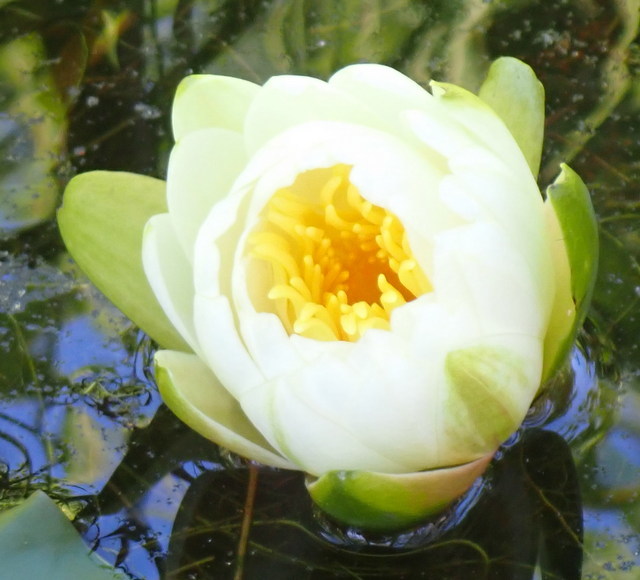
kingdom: Plantae
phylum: Tracheophyta
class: Magnoliopsida
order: Nymphaeales
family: Nymphaeaceae
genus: Nymphaea
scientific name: Nymphaea odorata
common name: Fragrant water-lily
